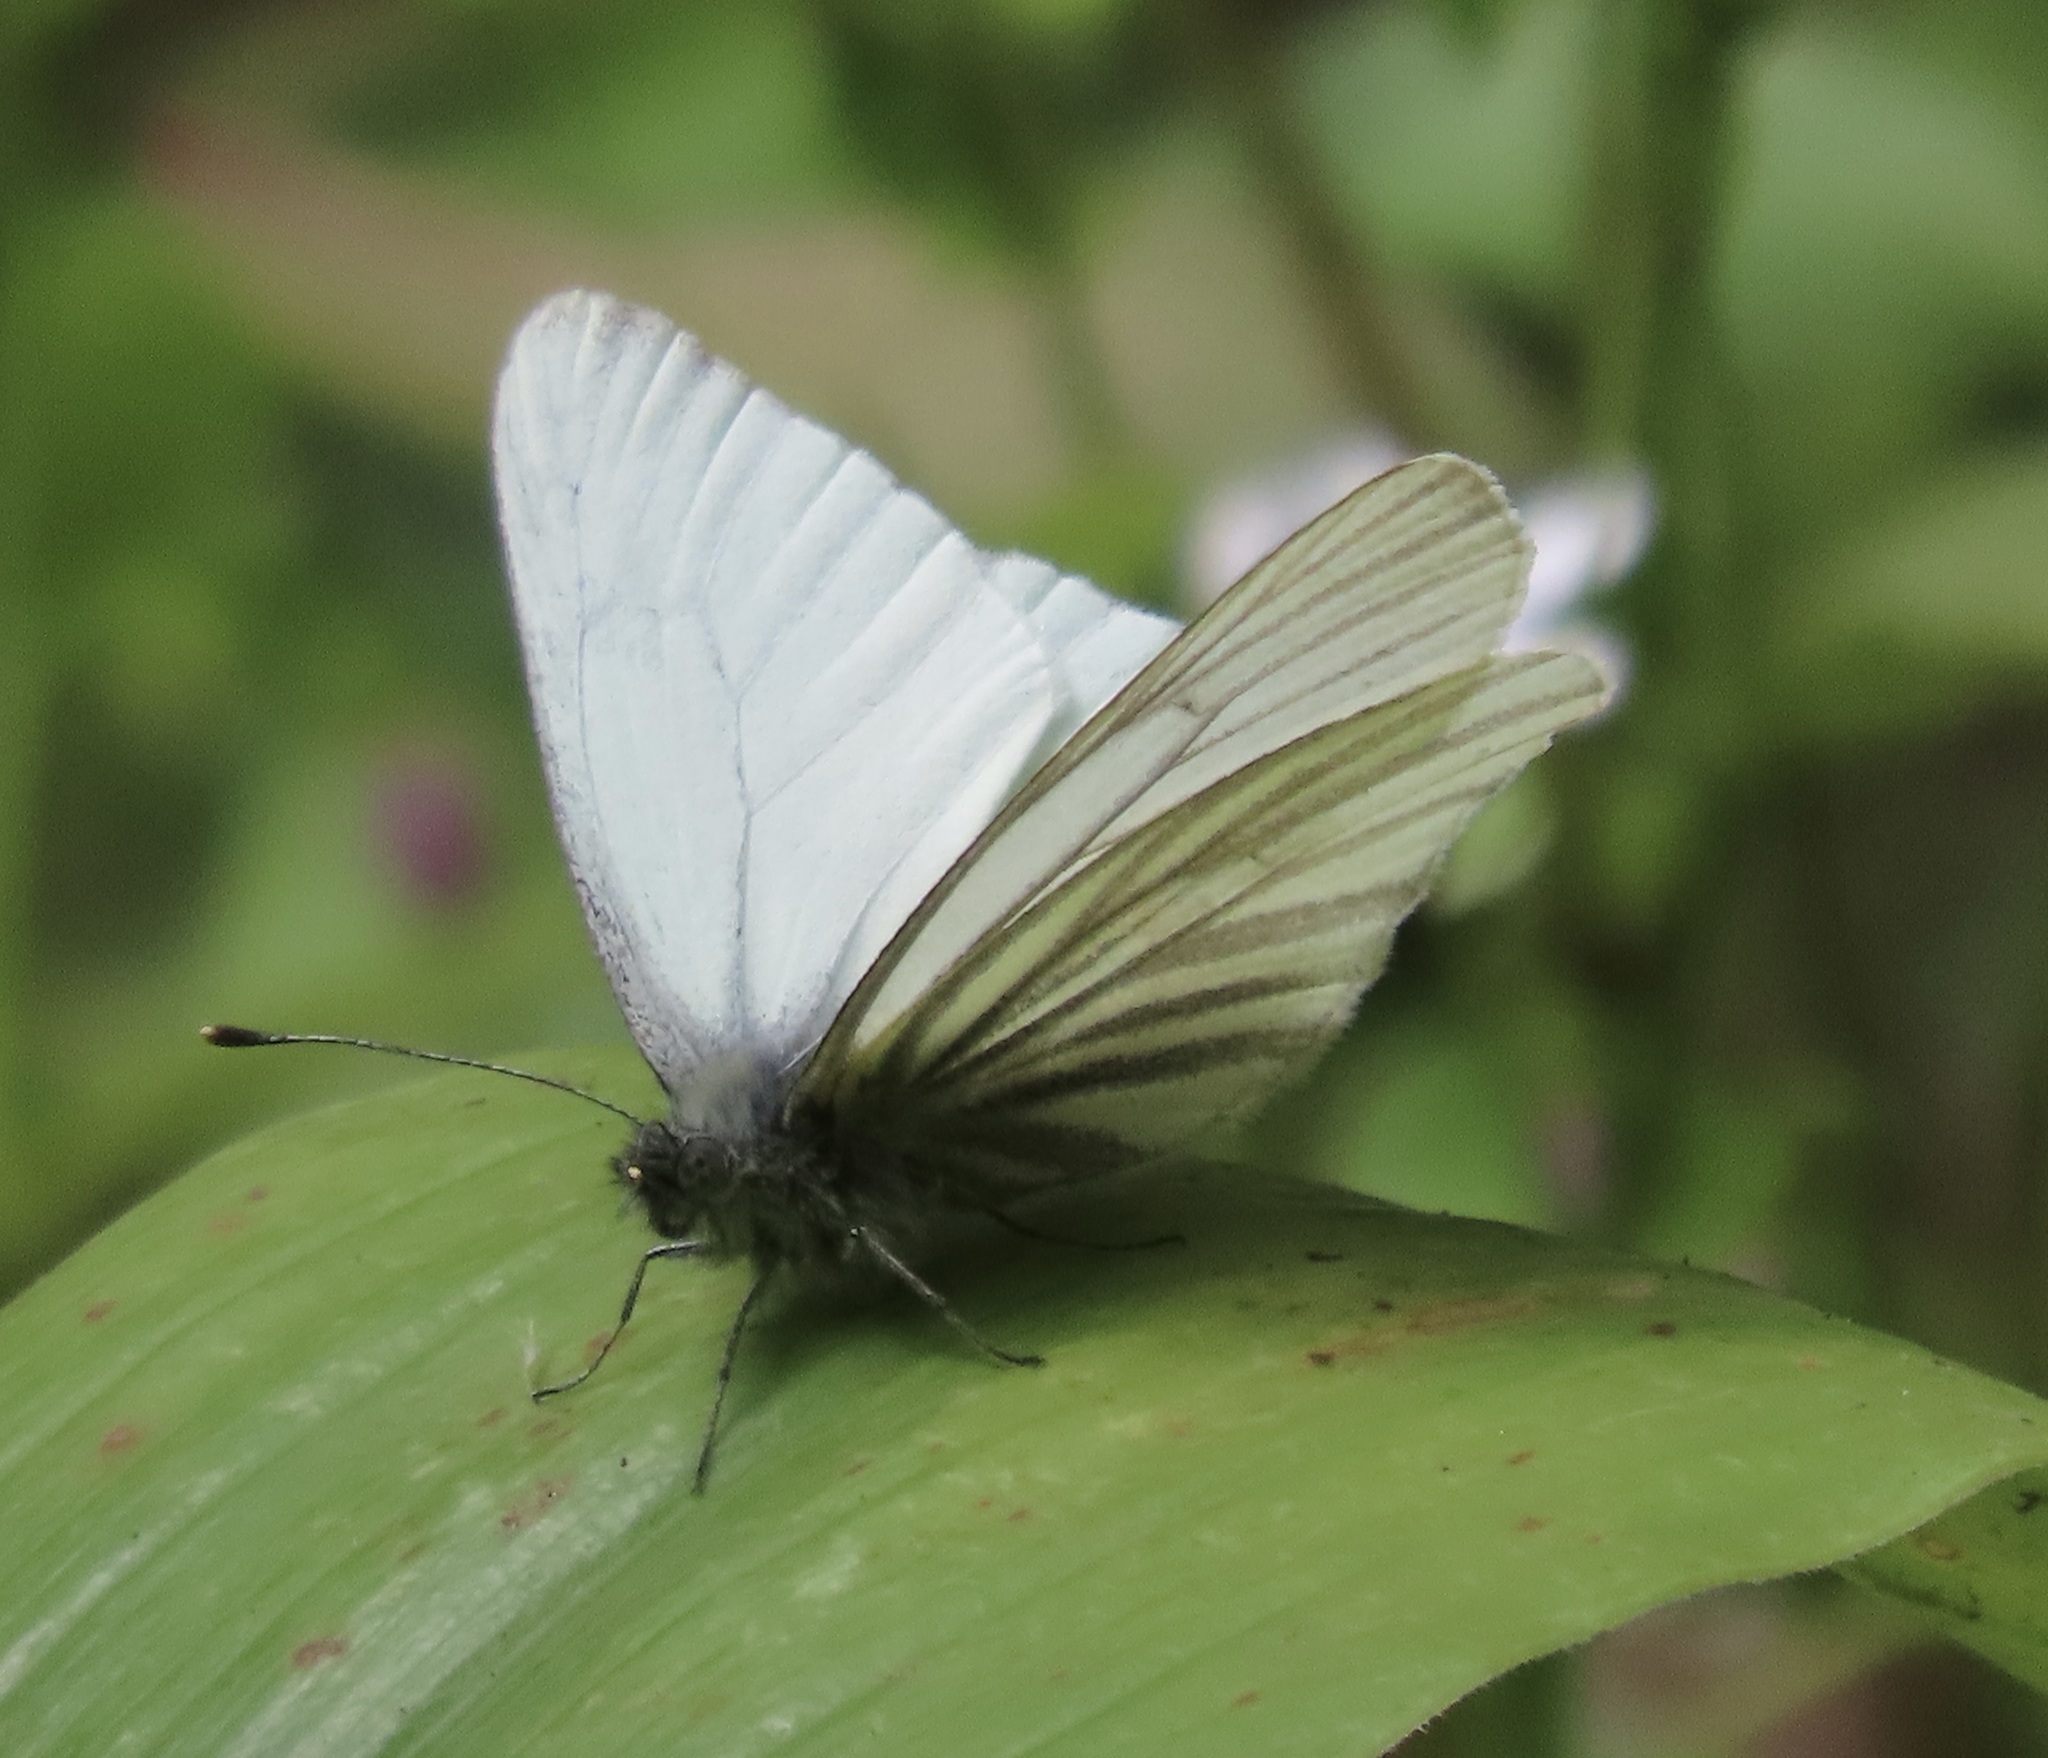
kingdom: Animalia
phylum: Arthropoda
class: Insecta
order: Lepidoptera
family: Pieridae
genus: Pieris
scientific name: Pieris marginalis
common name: Margined white
